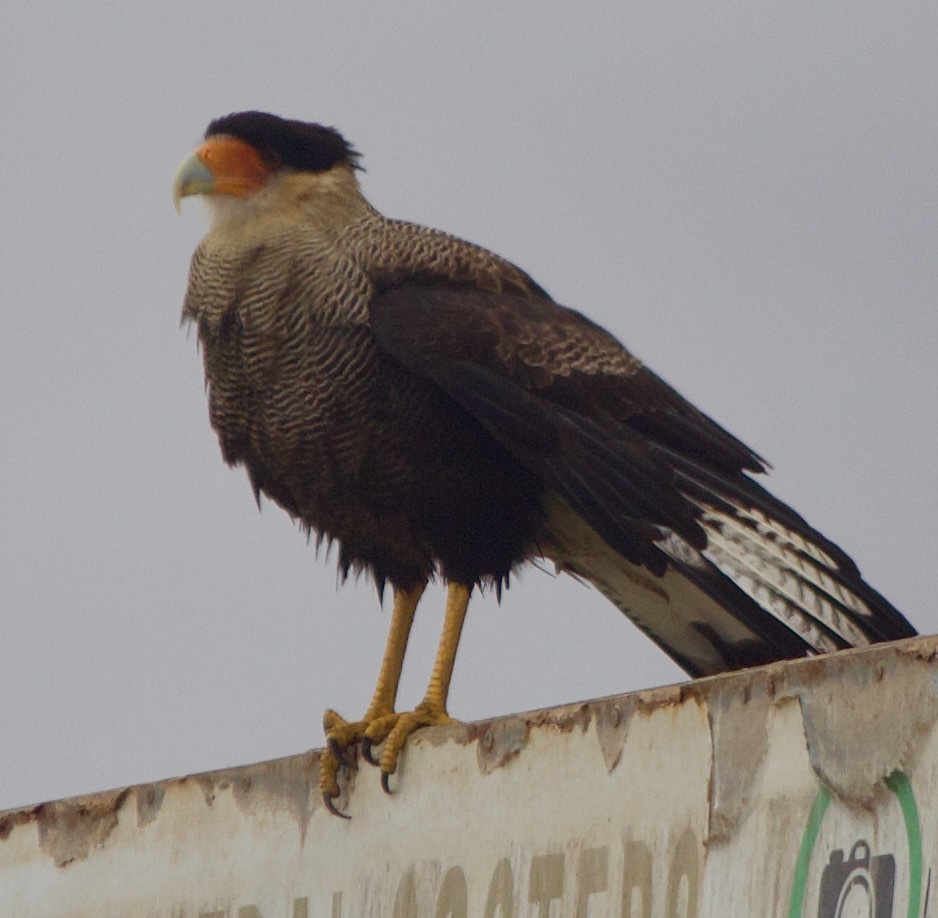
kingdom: Animalia
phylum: Chordata
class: Aves
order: Falconiformes
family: Falconidae
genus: Caracara
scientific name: Caracara plancus
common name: Southern caracara
